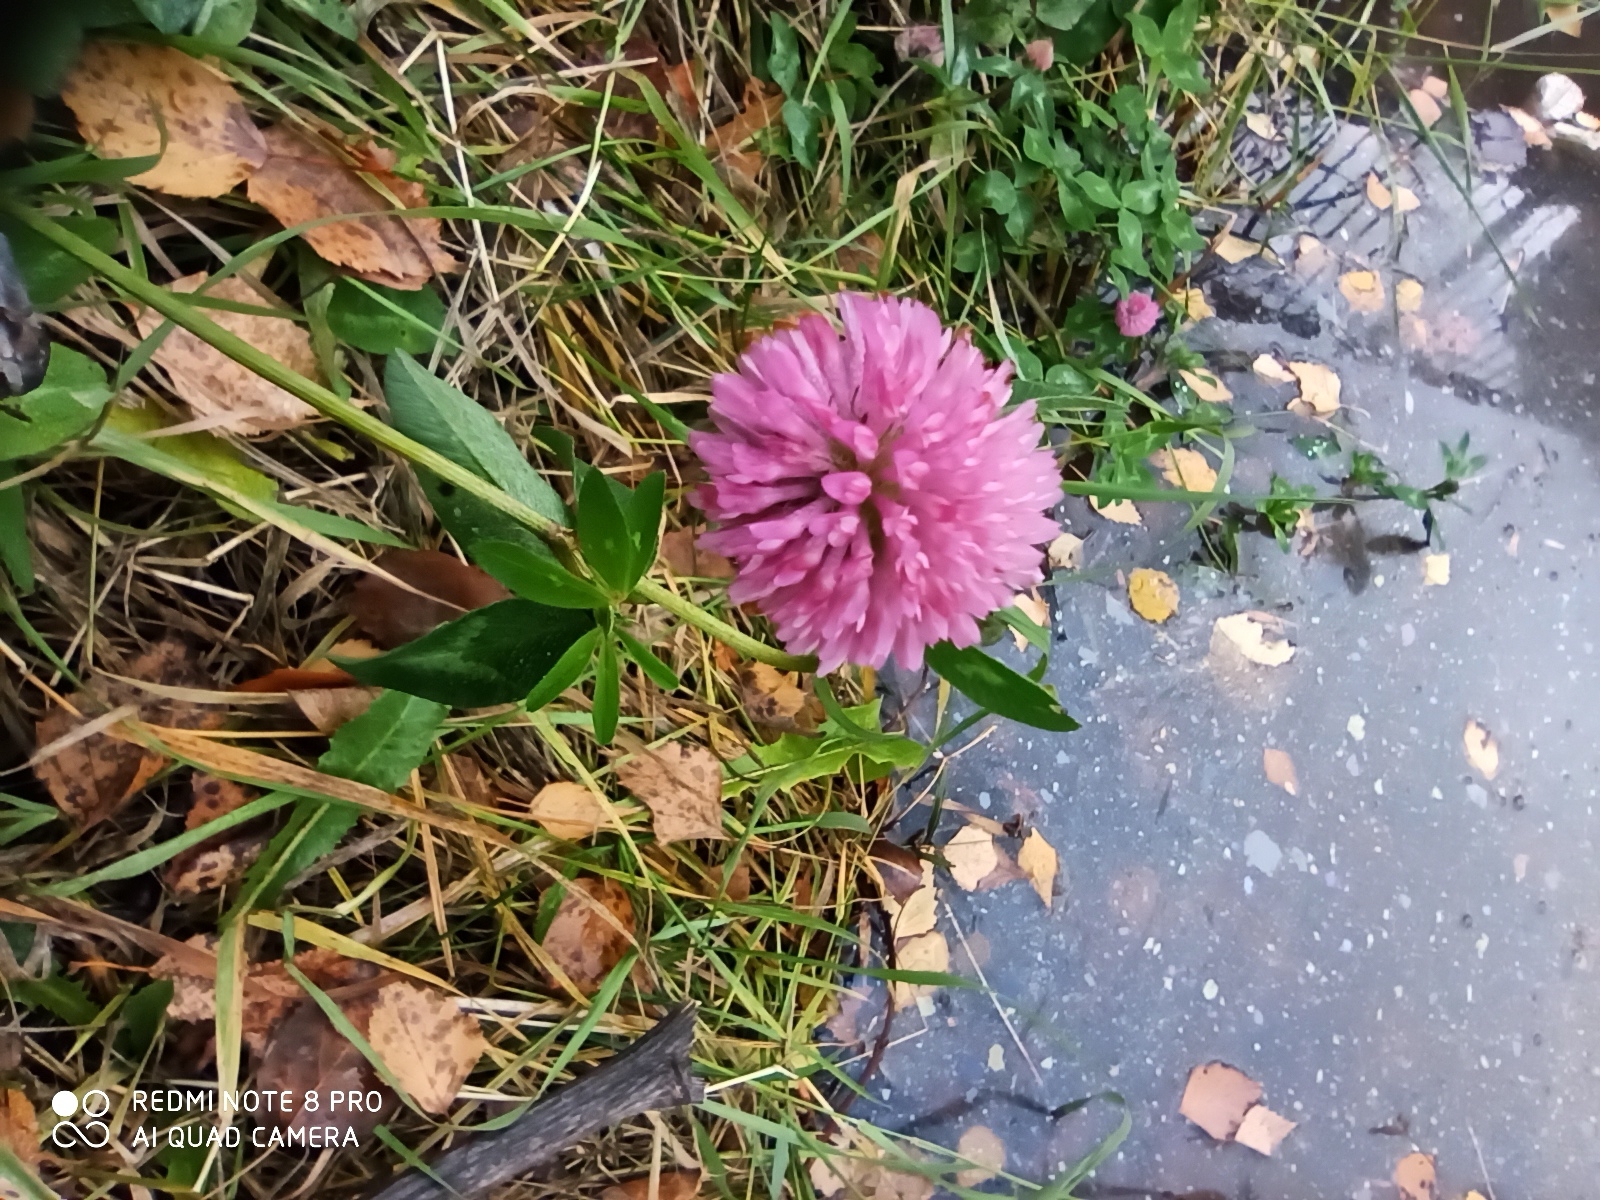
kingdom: Plantae
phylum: Tracheophyta
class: Magnoliopsida
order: Fabales
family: Fabaceae
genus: Trifolium
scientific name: Trifolium pratense
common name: Red clover
